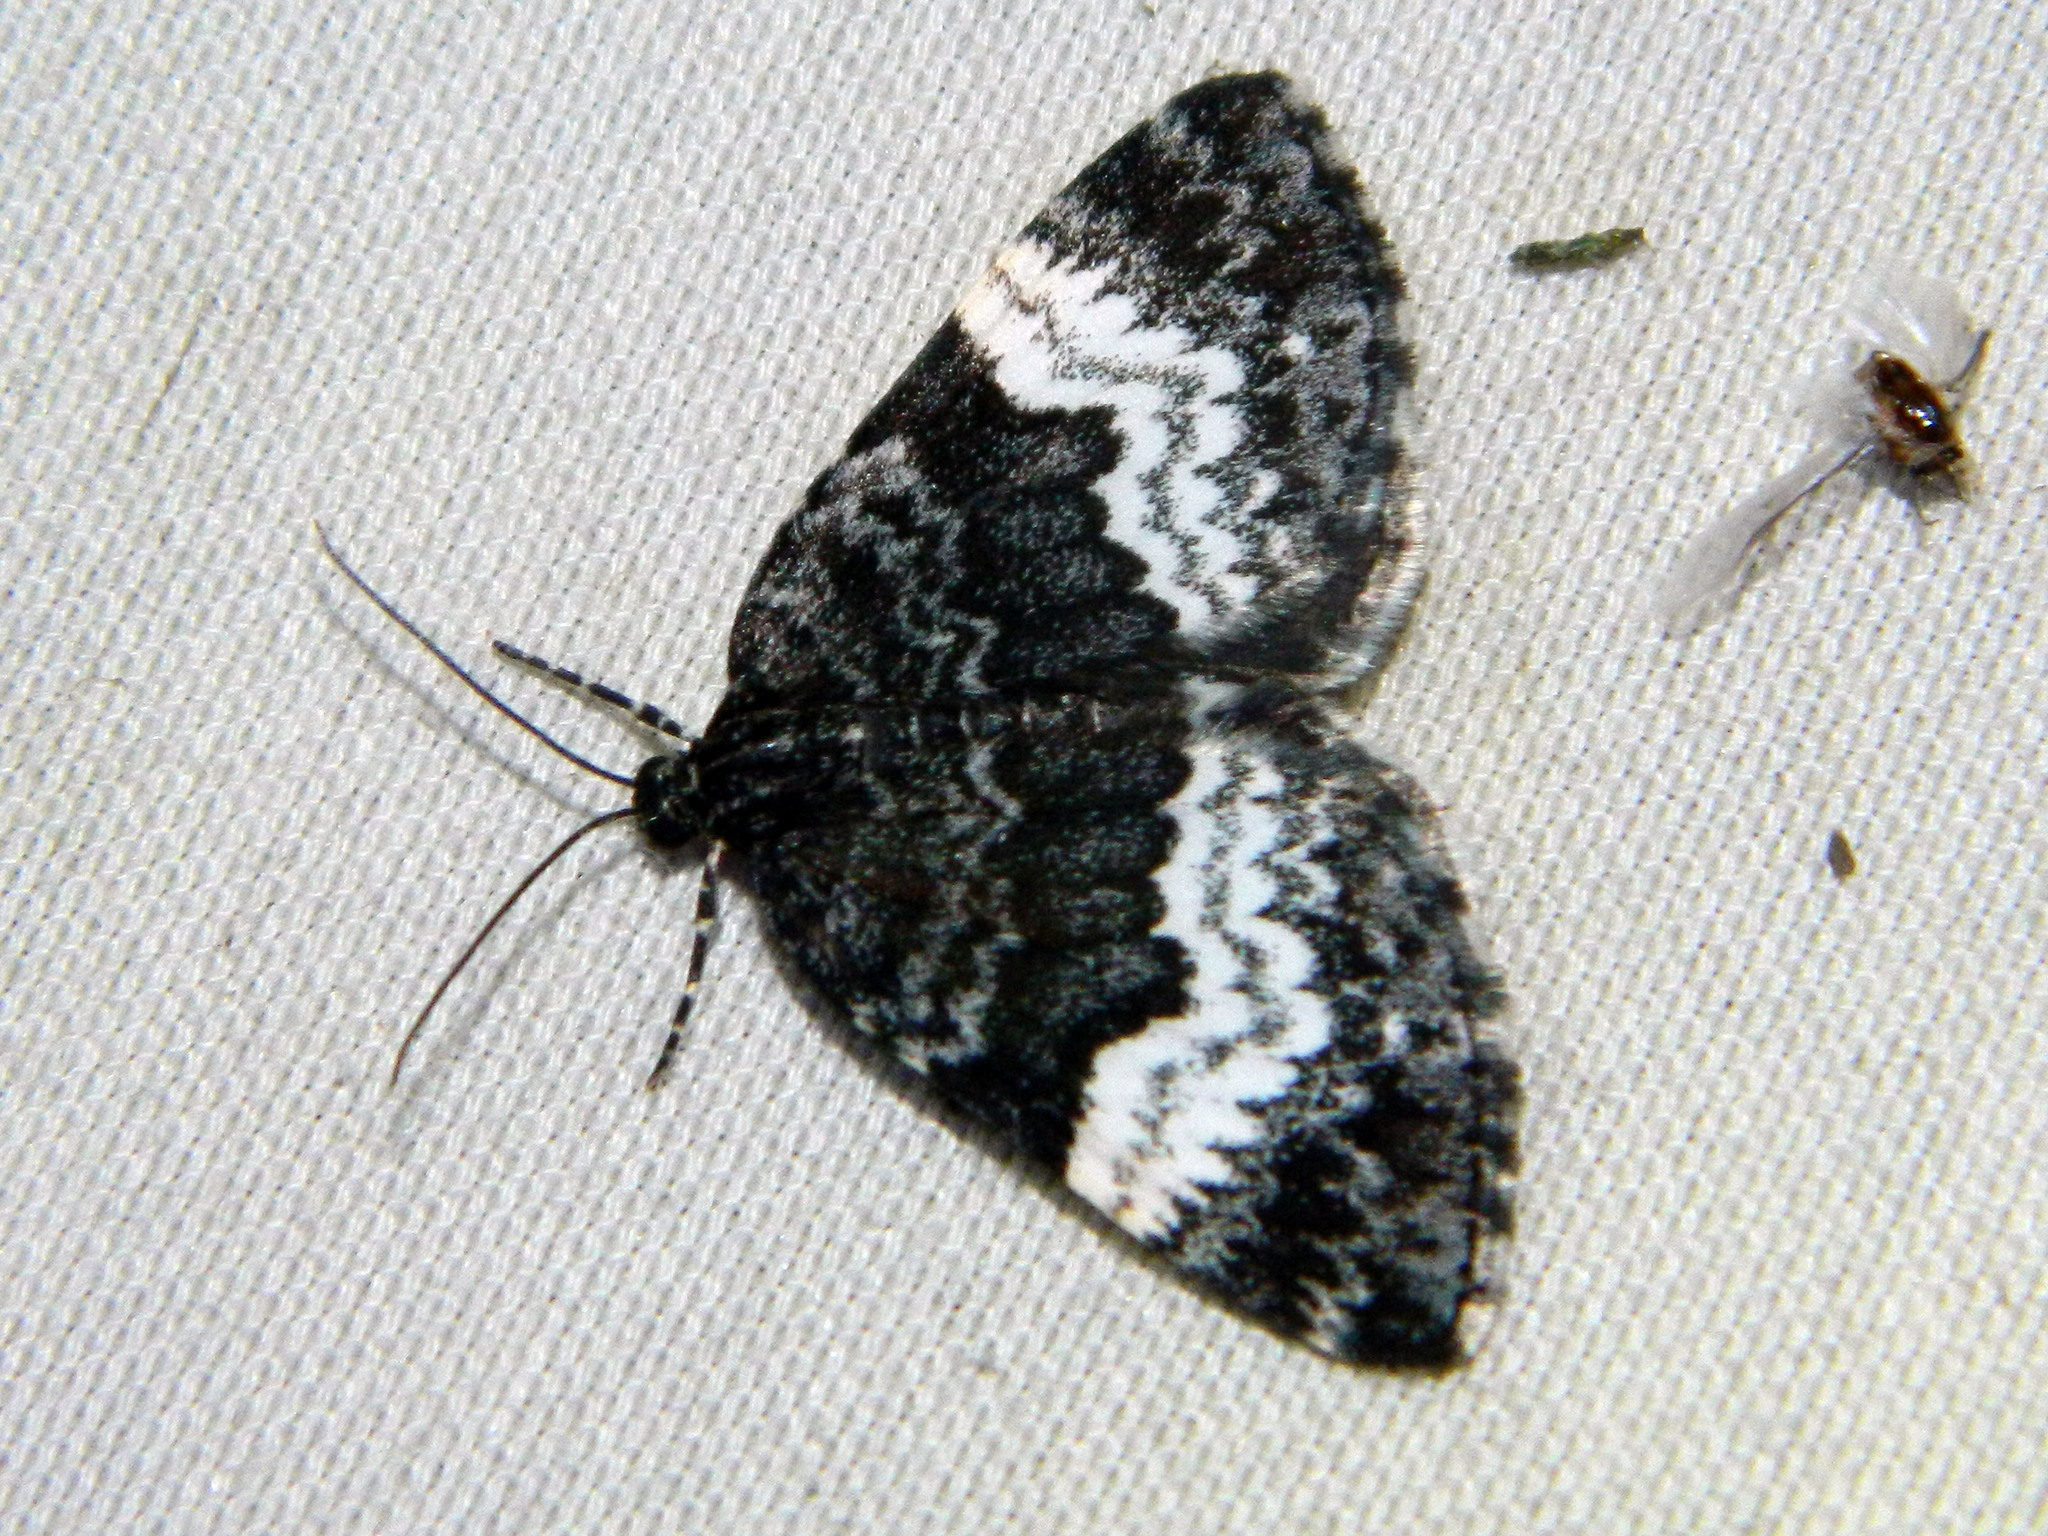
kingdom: Animalia
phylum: Arthropoda
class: Insecta
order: Lepidoptera
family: Geometridae
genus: Spargania
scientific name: Spargania luctuata
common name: White-banded carpet
